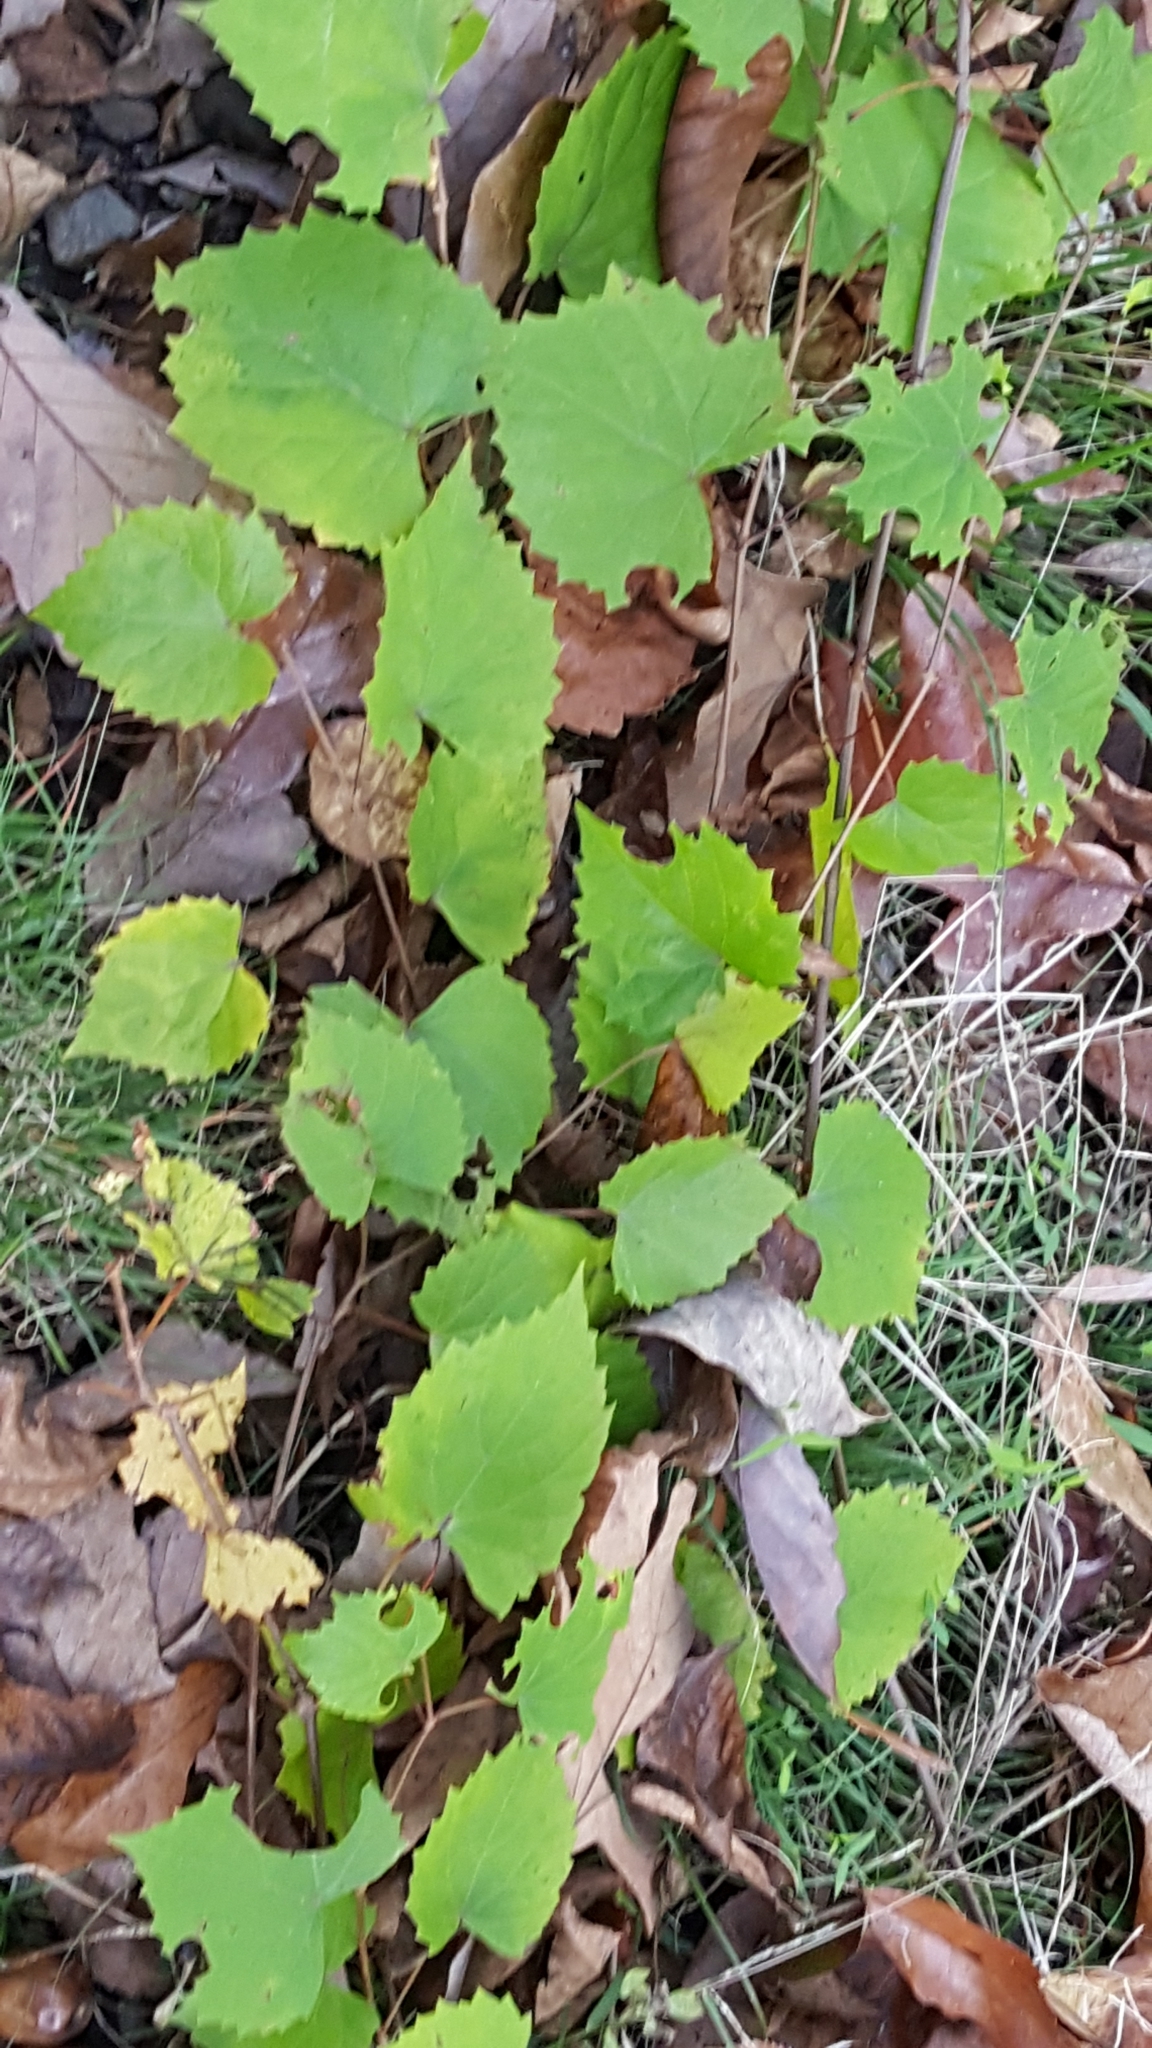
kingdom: Plantae
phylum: Tracheophyta
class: Magnoliopsida
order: Vitales
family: Vitaceae
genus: Vitis
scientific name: Vitis rotundifolia
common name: Muscadine grape
